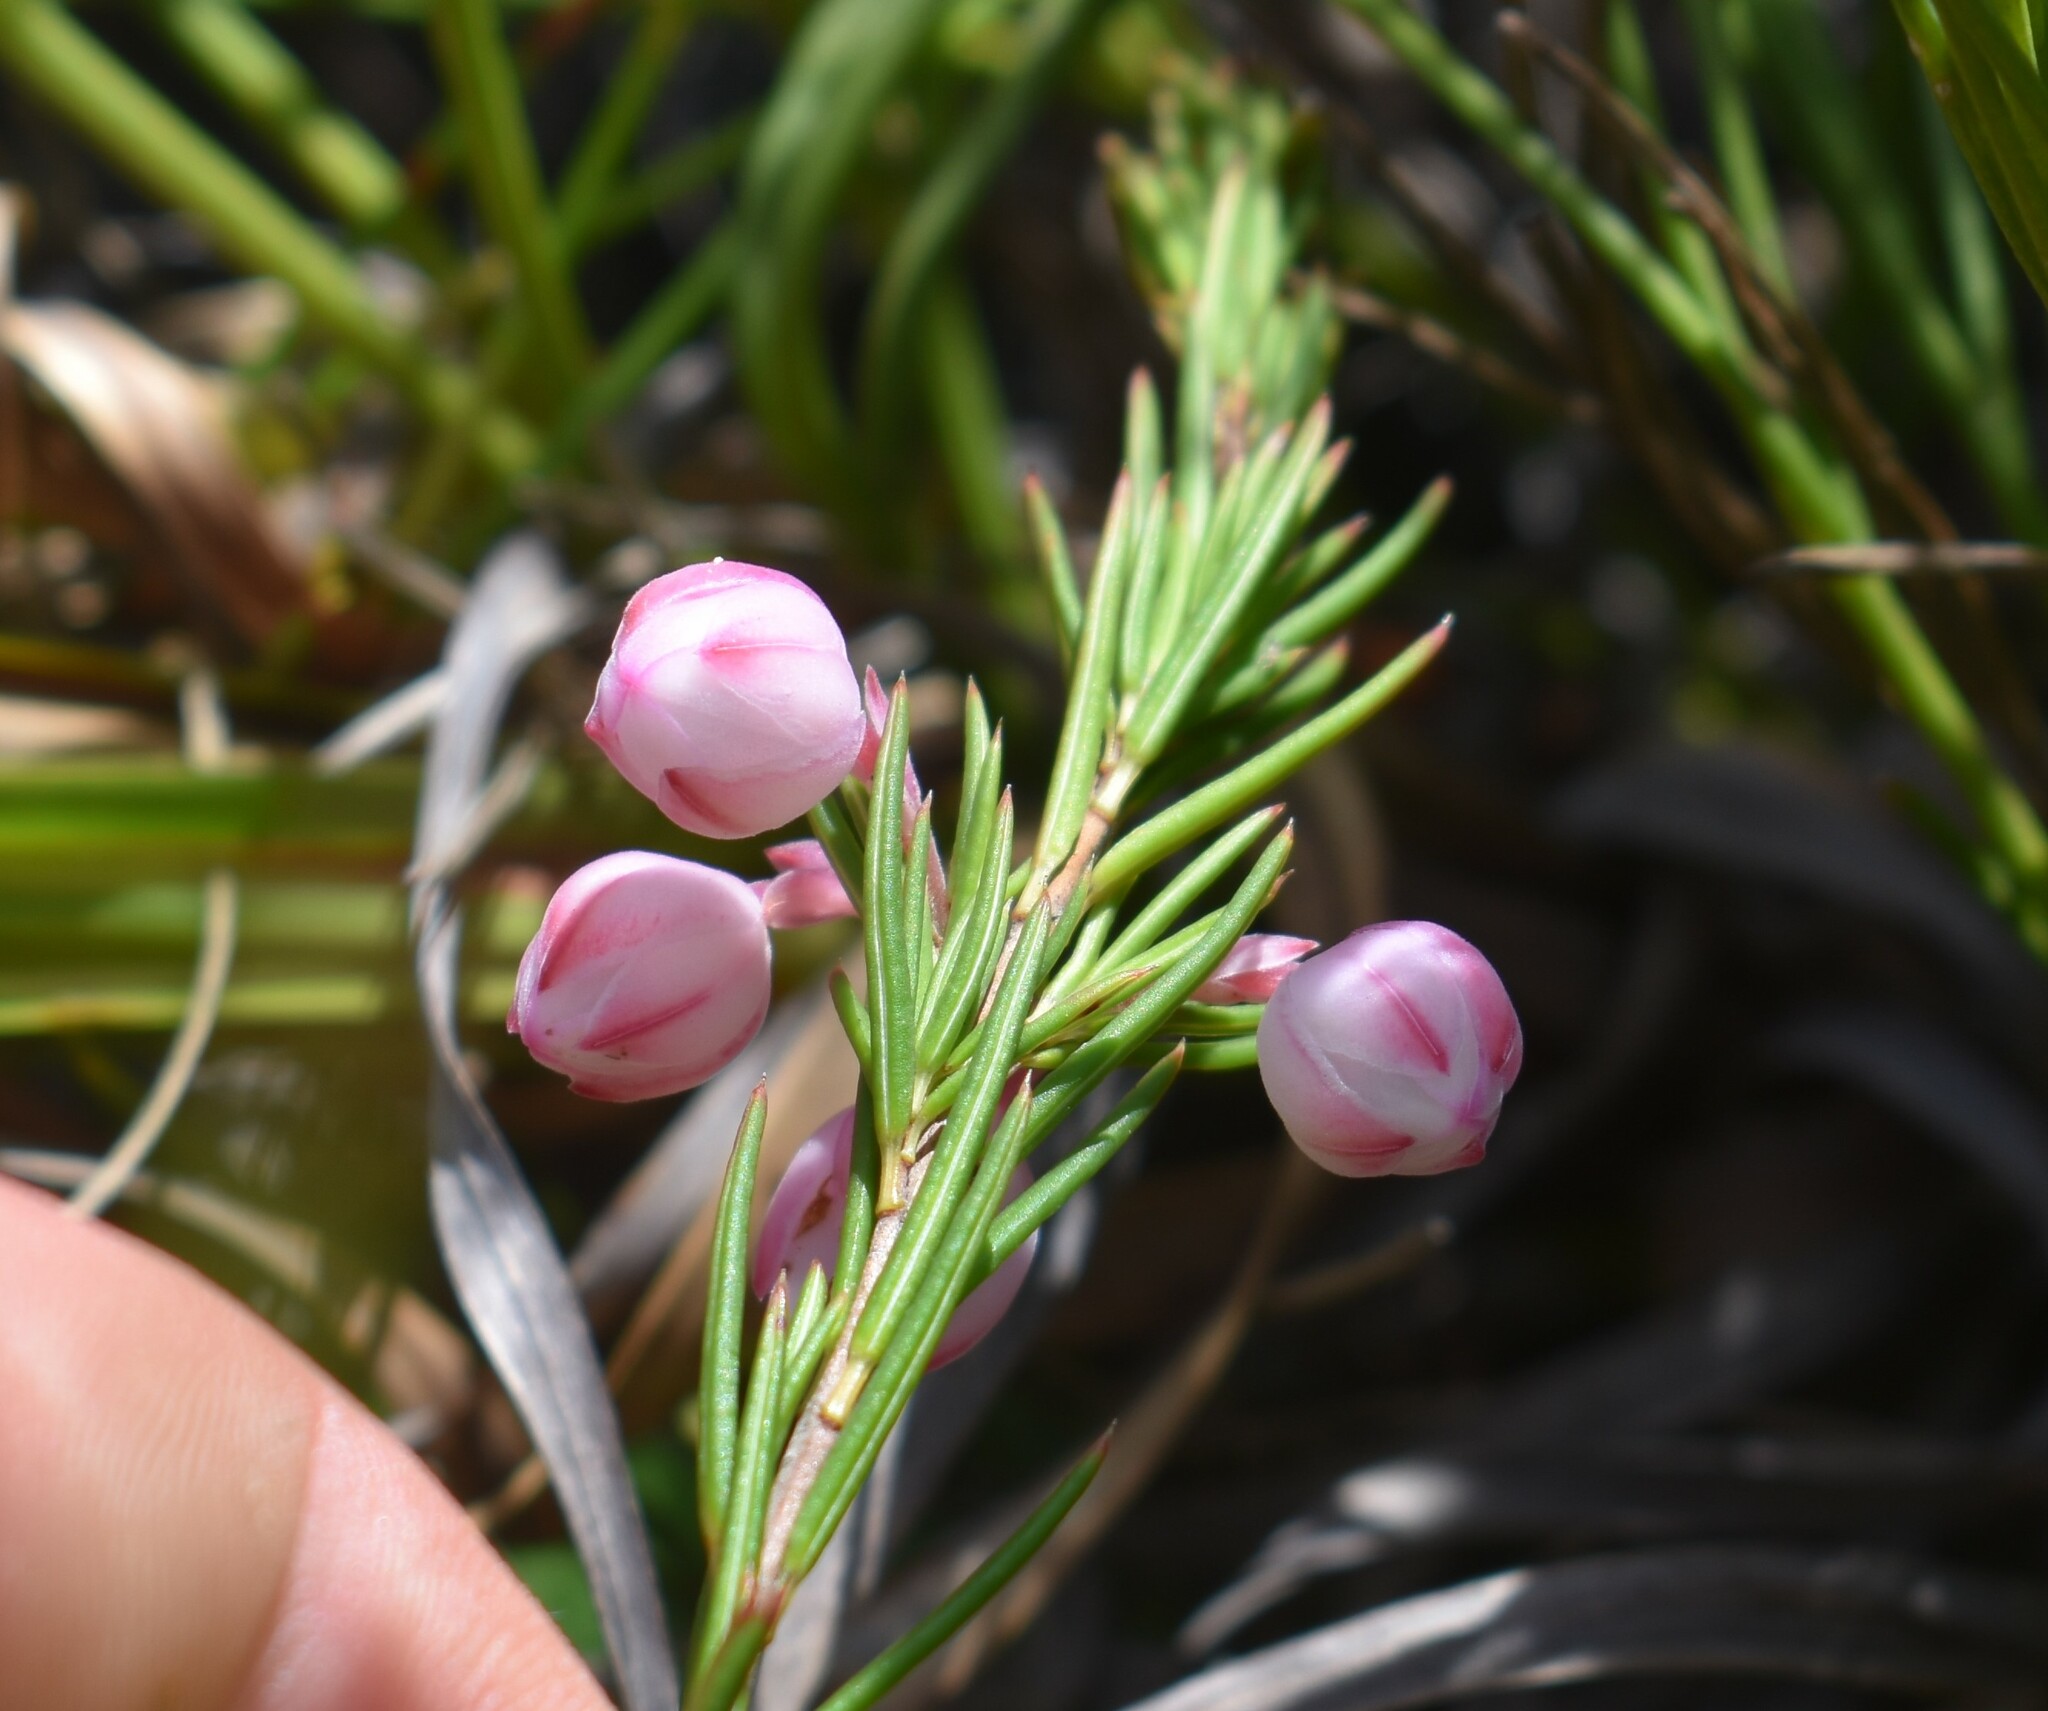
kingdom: Plantae
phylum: Tracheophyta
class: Magnoliopsida
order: Ericales
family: Ericaceae
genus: Erica
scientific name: Erica holosericea
